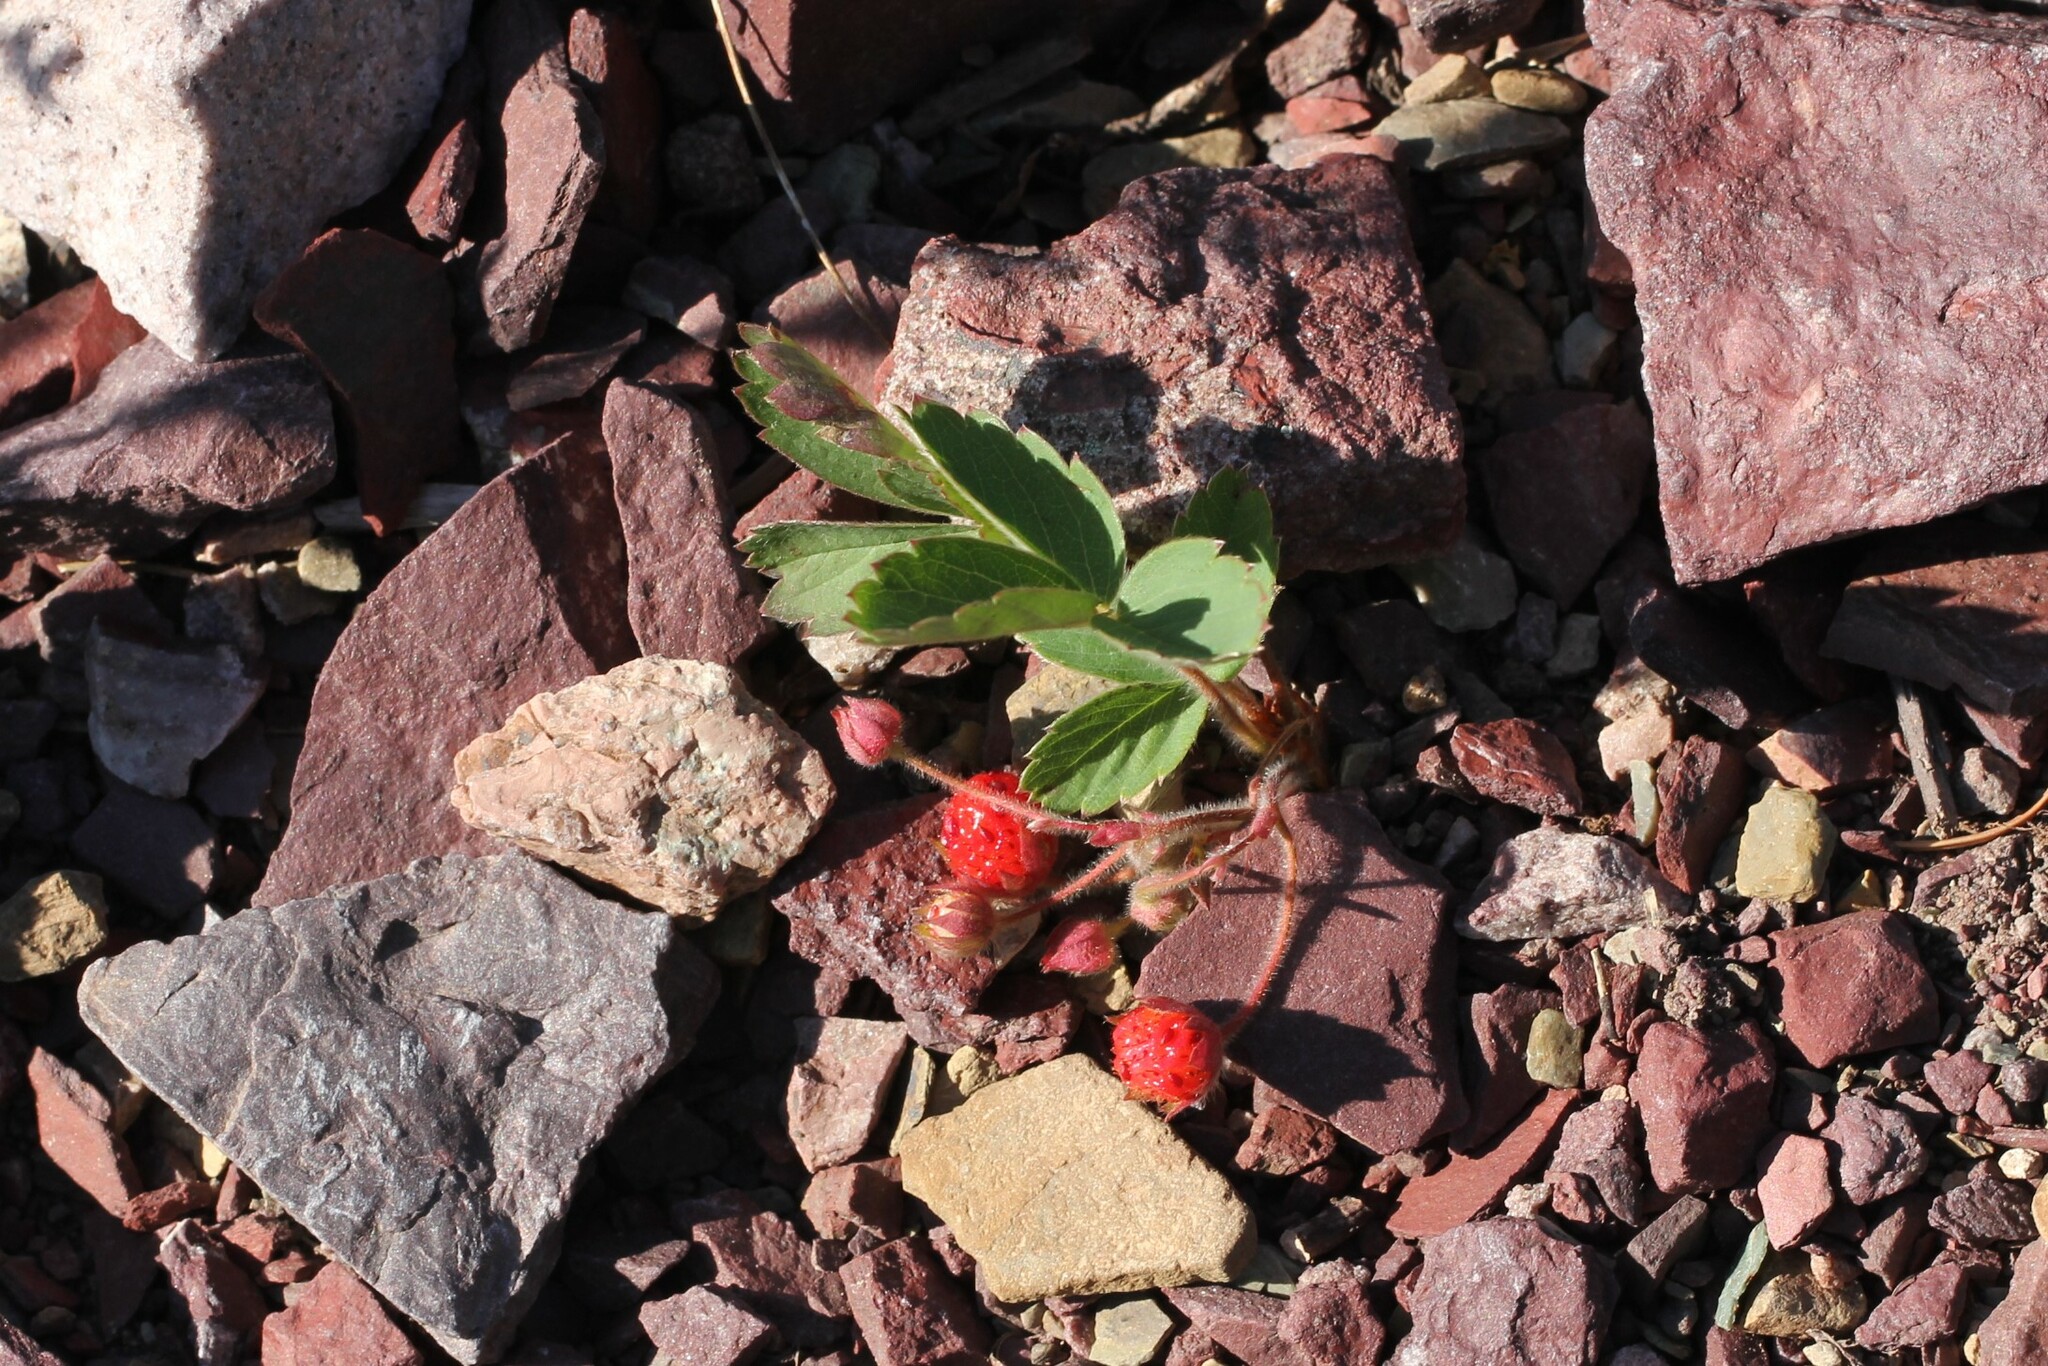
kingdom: Plantae
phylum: Tracheophyta
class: Magnoliopsida
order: Rosales
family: Rosaceae
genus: Fragaria
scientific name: Fragaria virginiana
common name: Thickleaved wild strawberry
